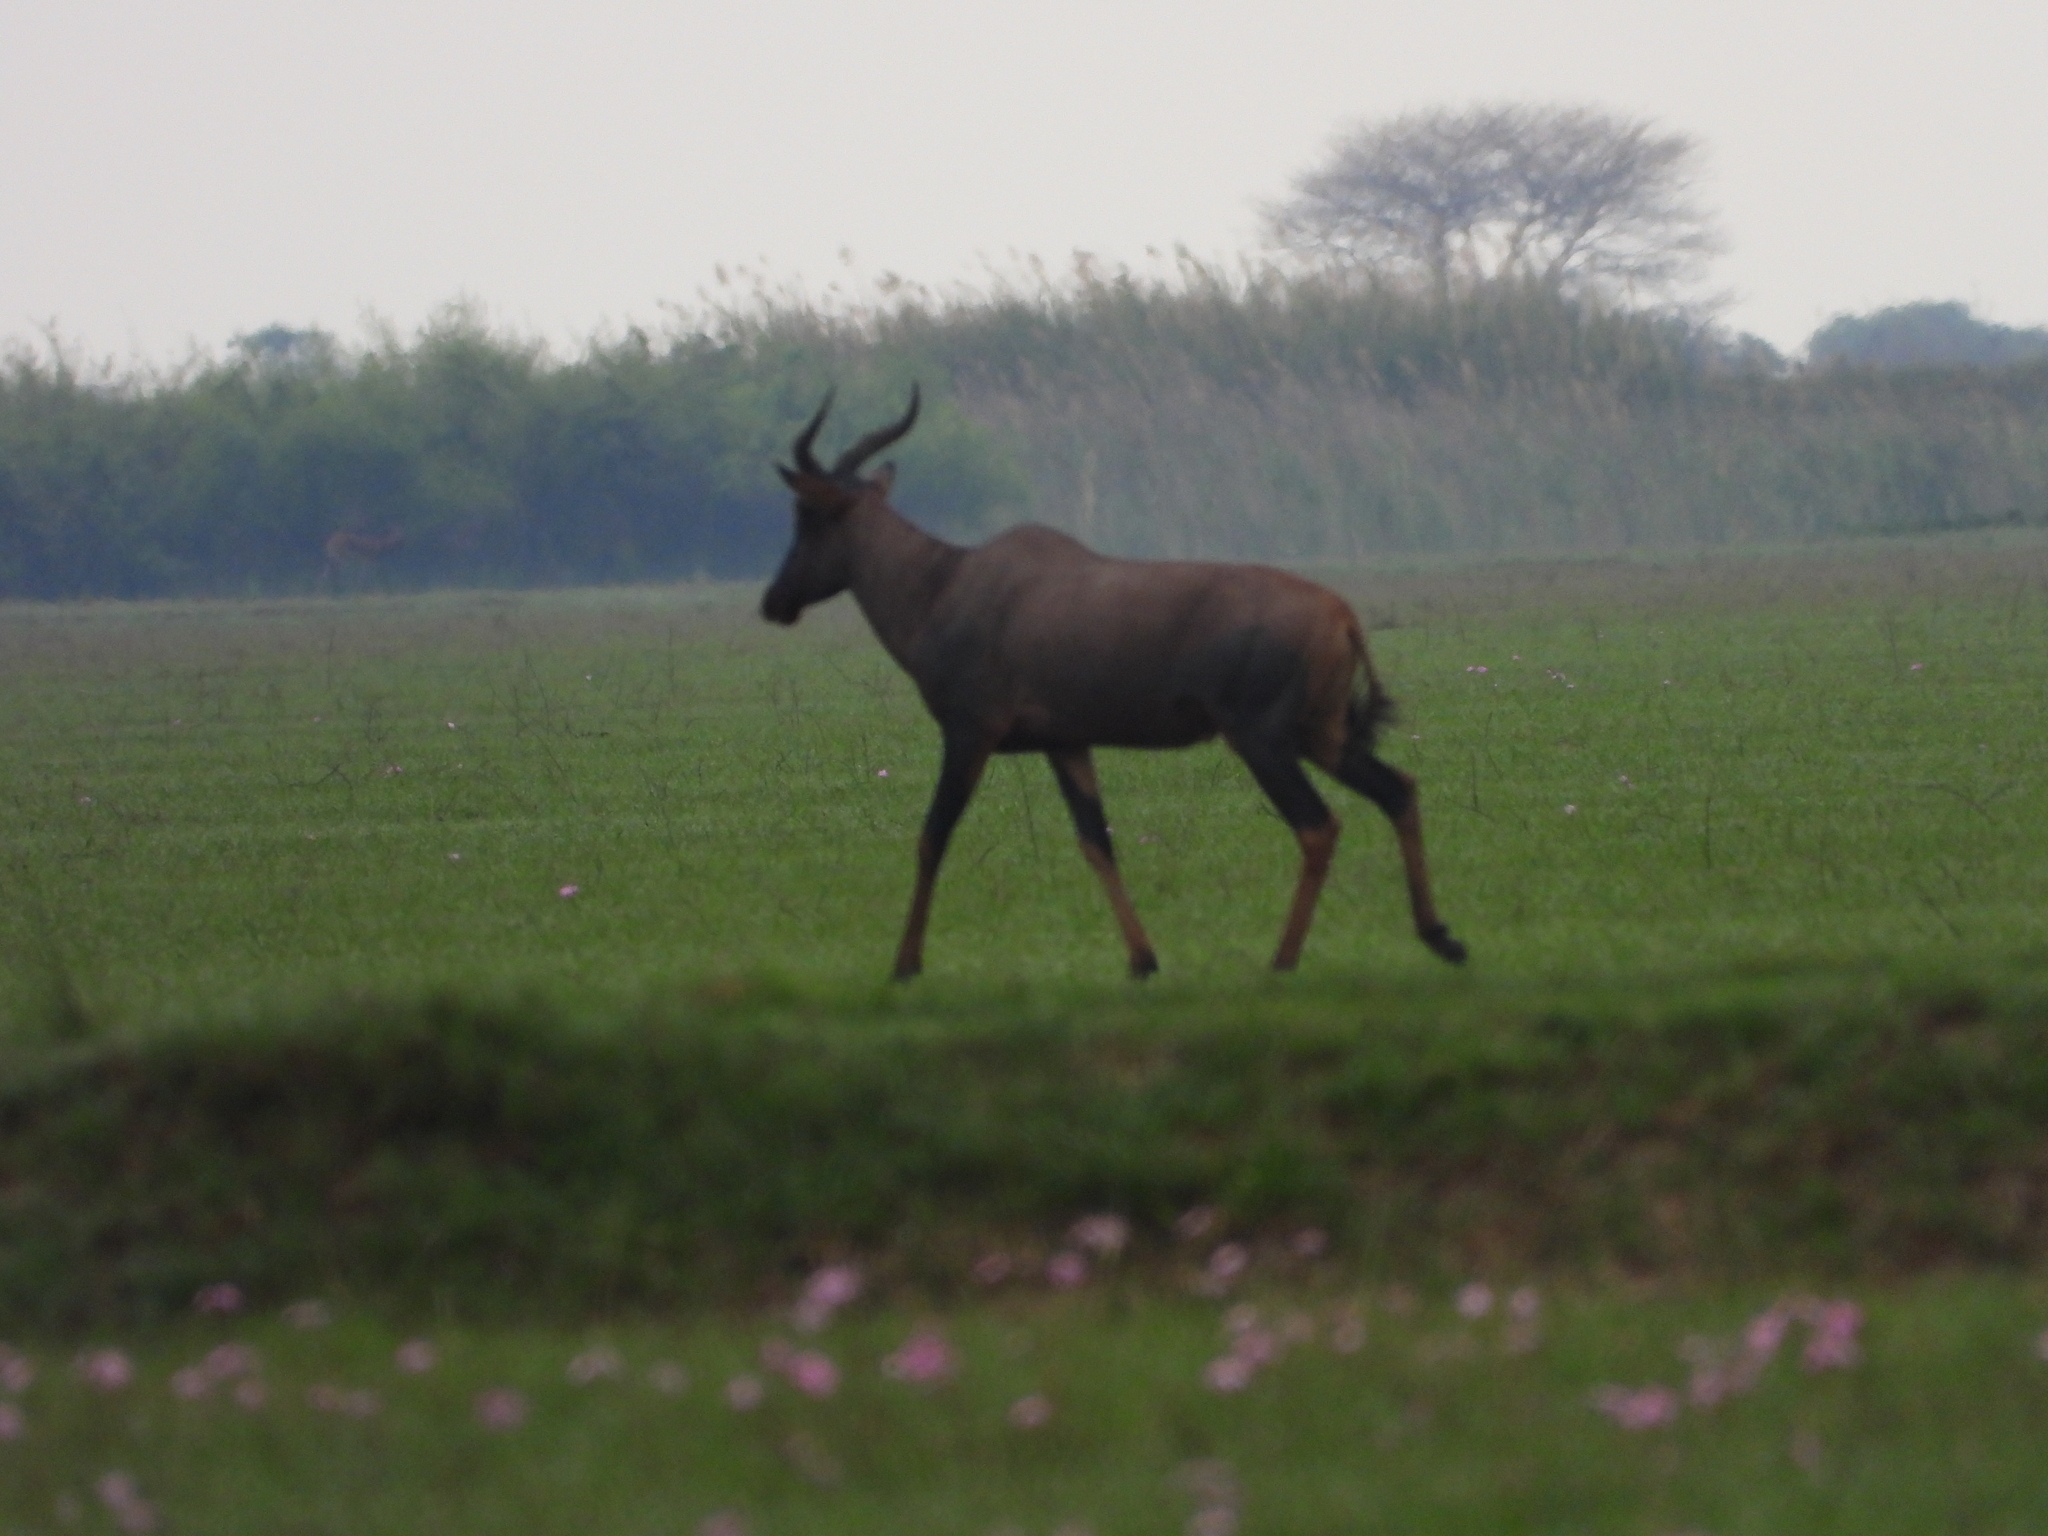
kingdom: Animalia
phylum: Chordata
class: Mammalia
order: Artiodactyla
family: Bovidae
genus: Damaliscus
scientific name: Damaliscus lunatus
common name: Common tsessebe
